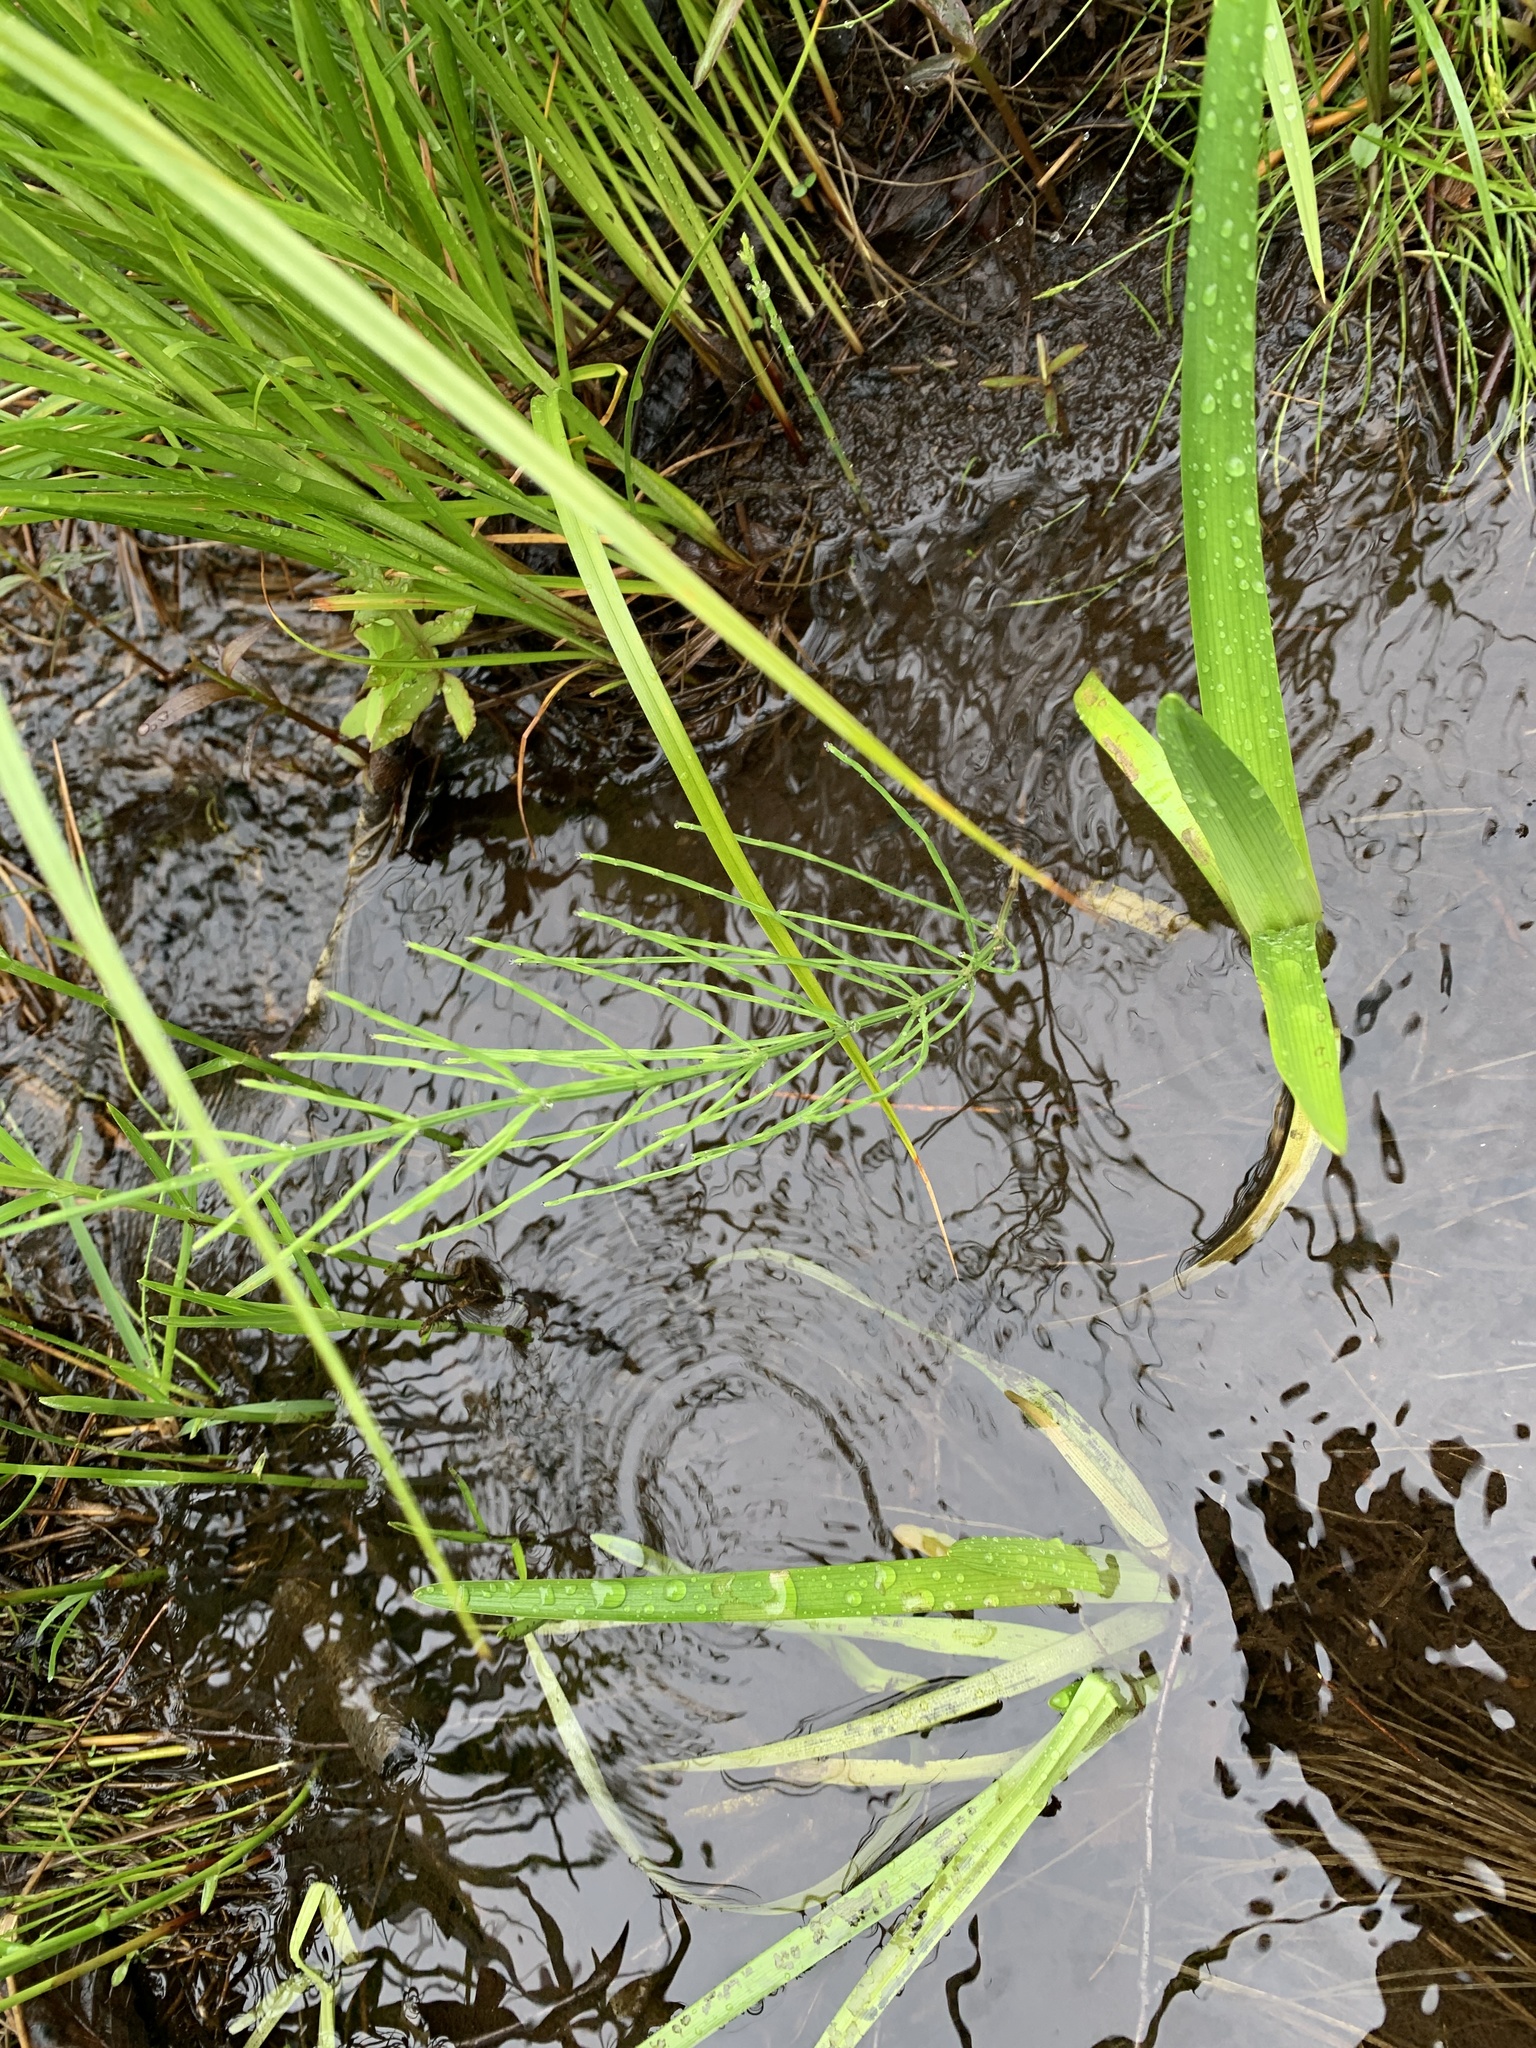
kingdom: Plantae
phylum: Tracheophyta
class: Polypodiopsida
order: Equisetales
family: Equisetaceae
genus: Equisetum
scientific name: Equisetum arvense
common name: Field horsetail
